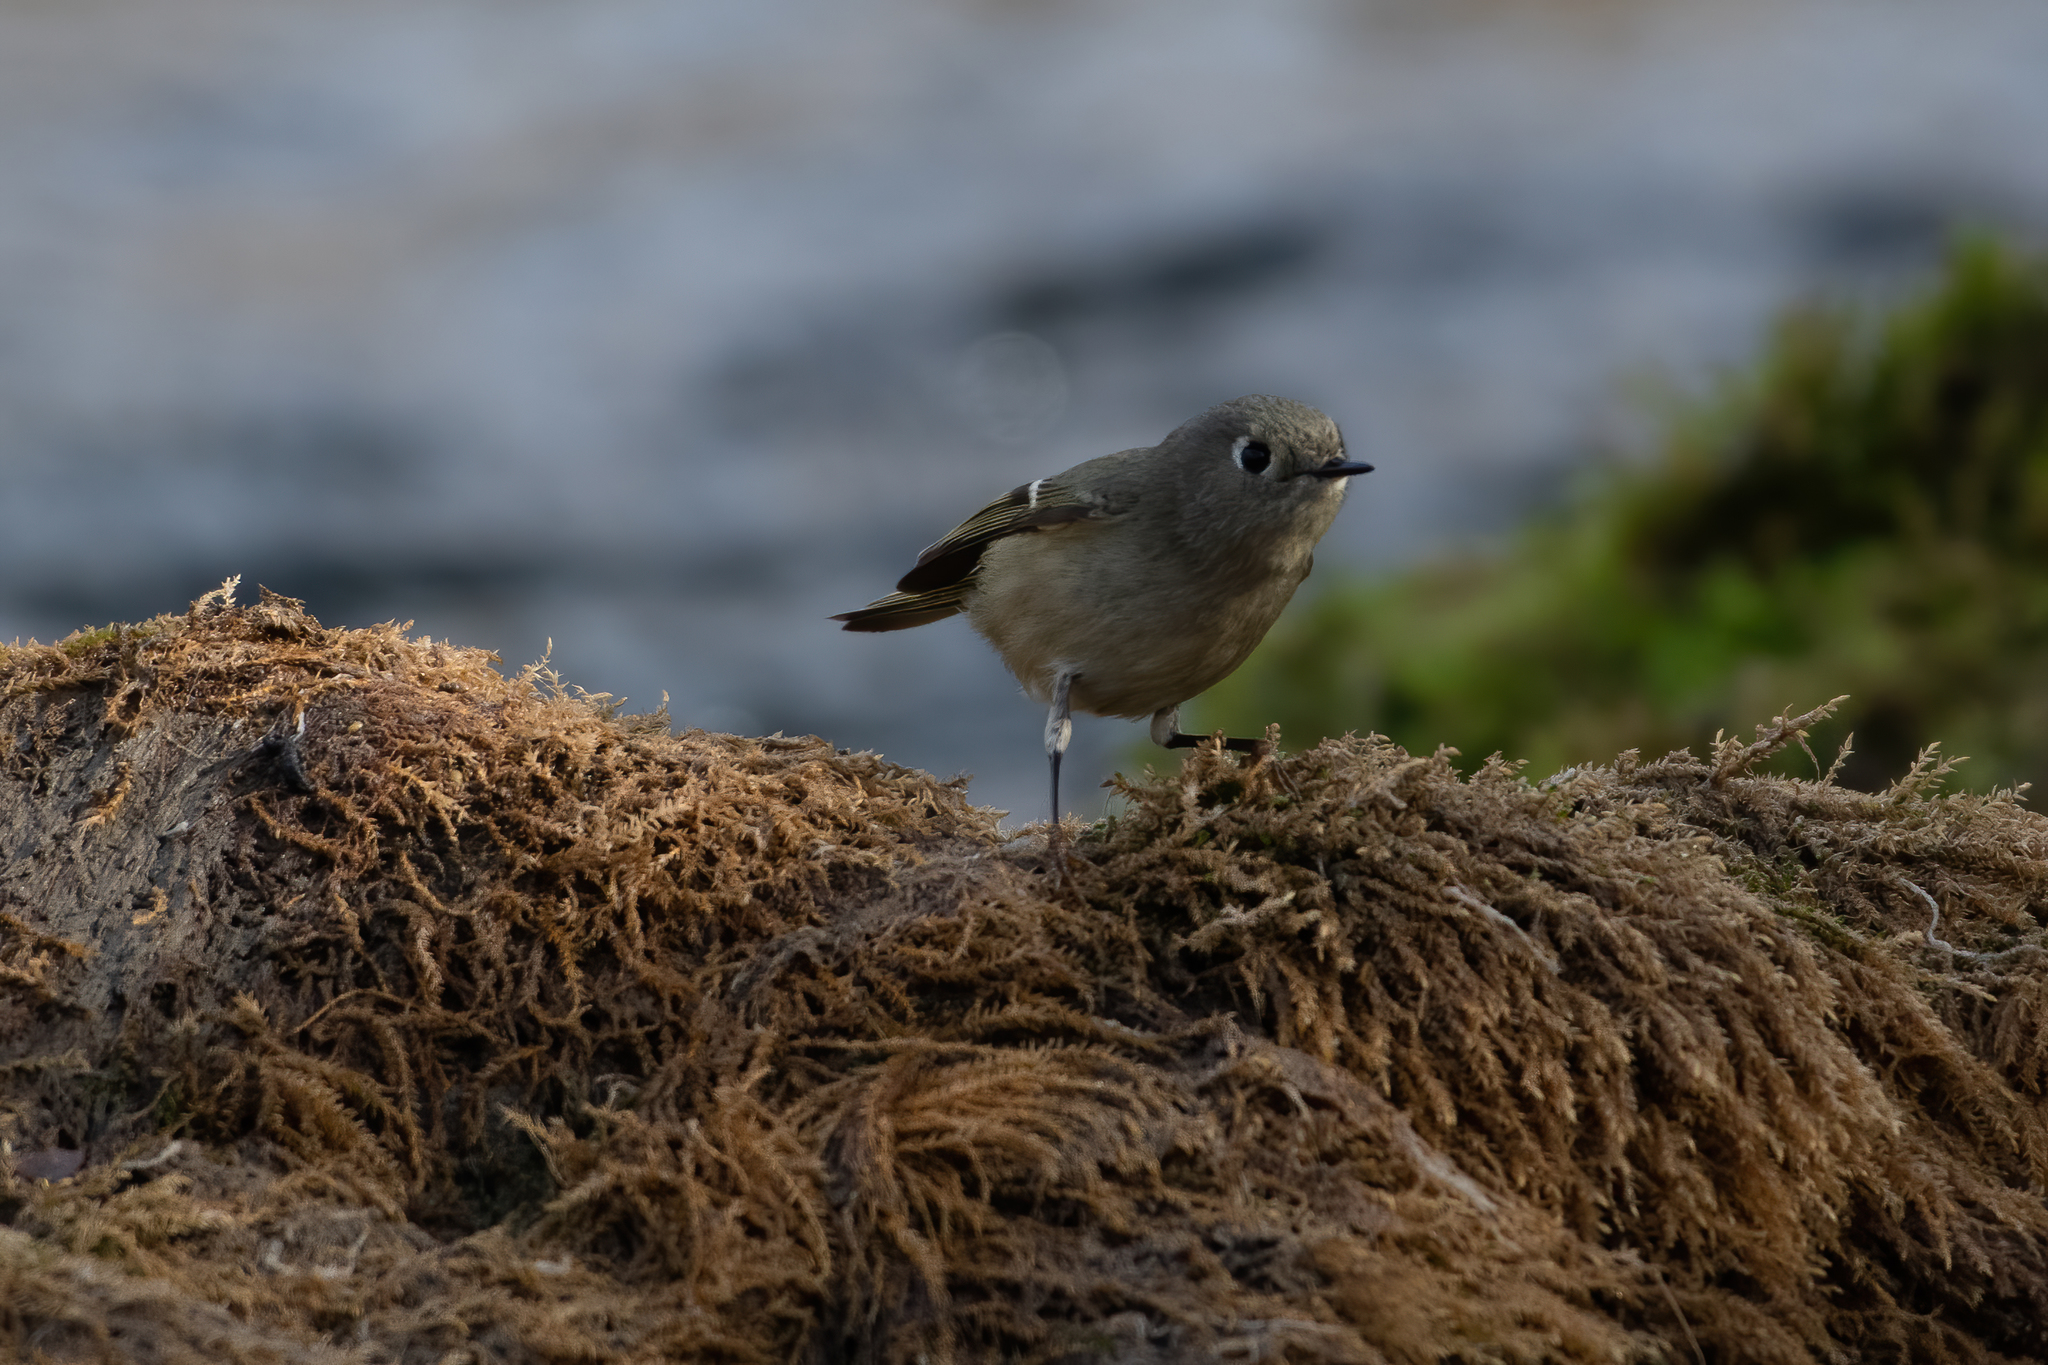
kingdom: Animalia
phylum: Chordata
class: Aves
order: Passeriformes
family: Regulidae
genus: Regulus
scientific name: Regulus calendula
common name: Ruby-crowned kinglet
